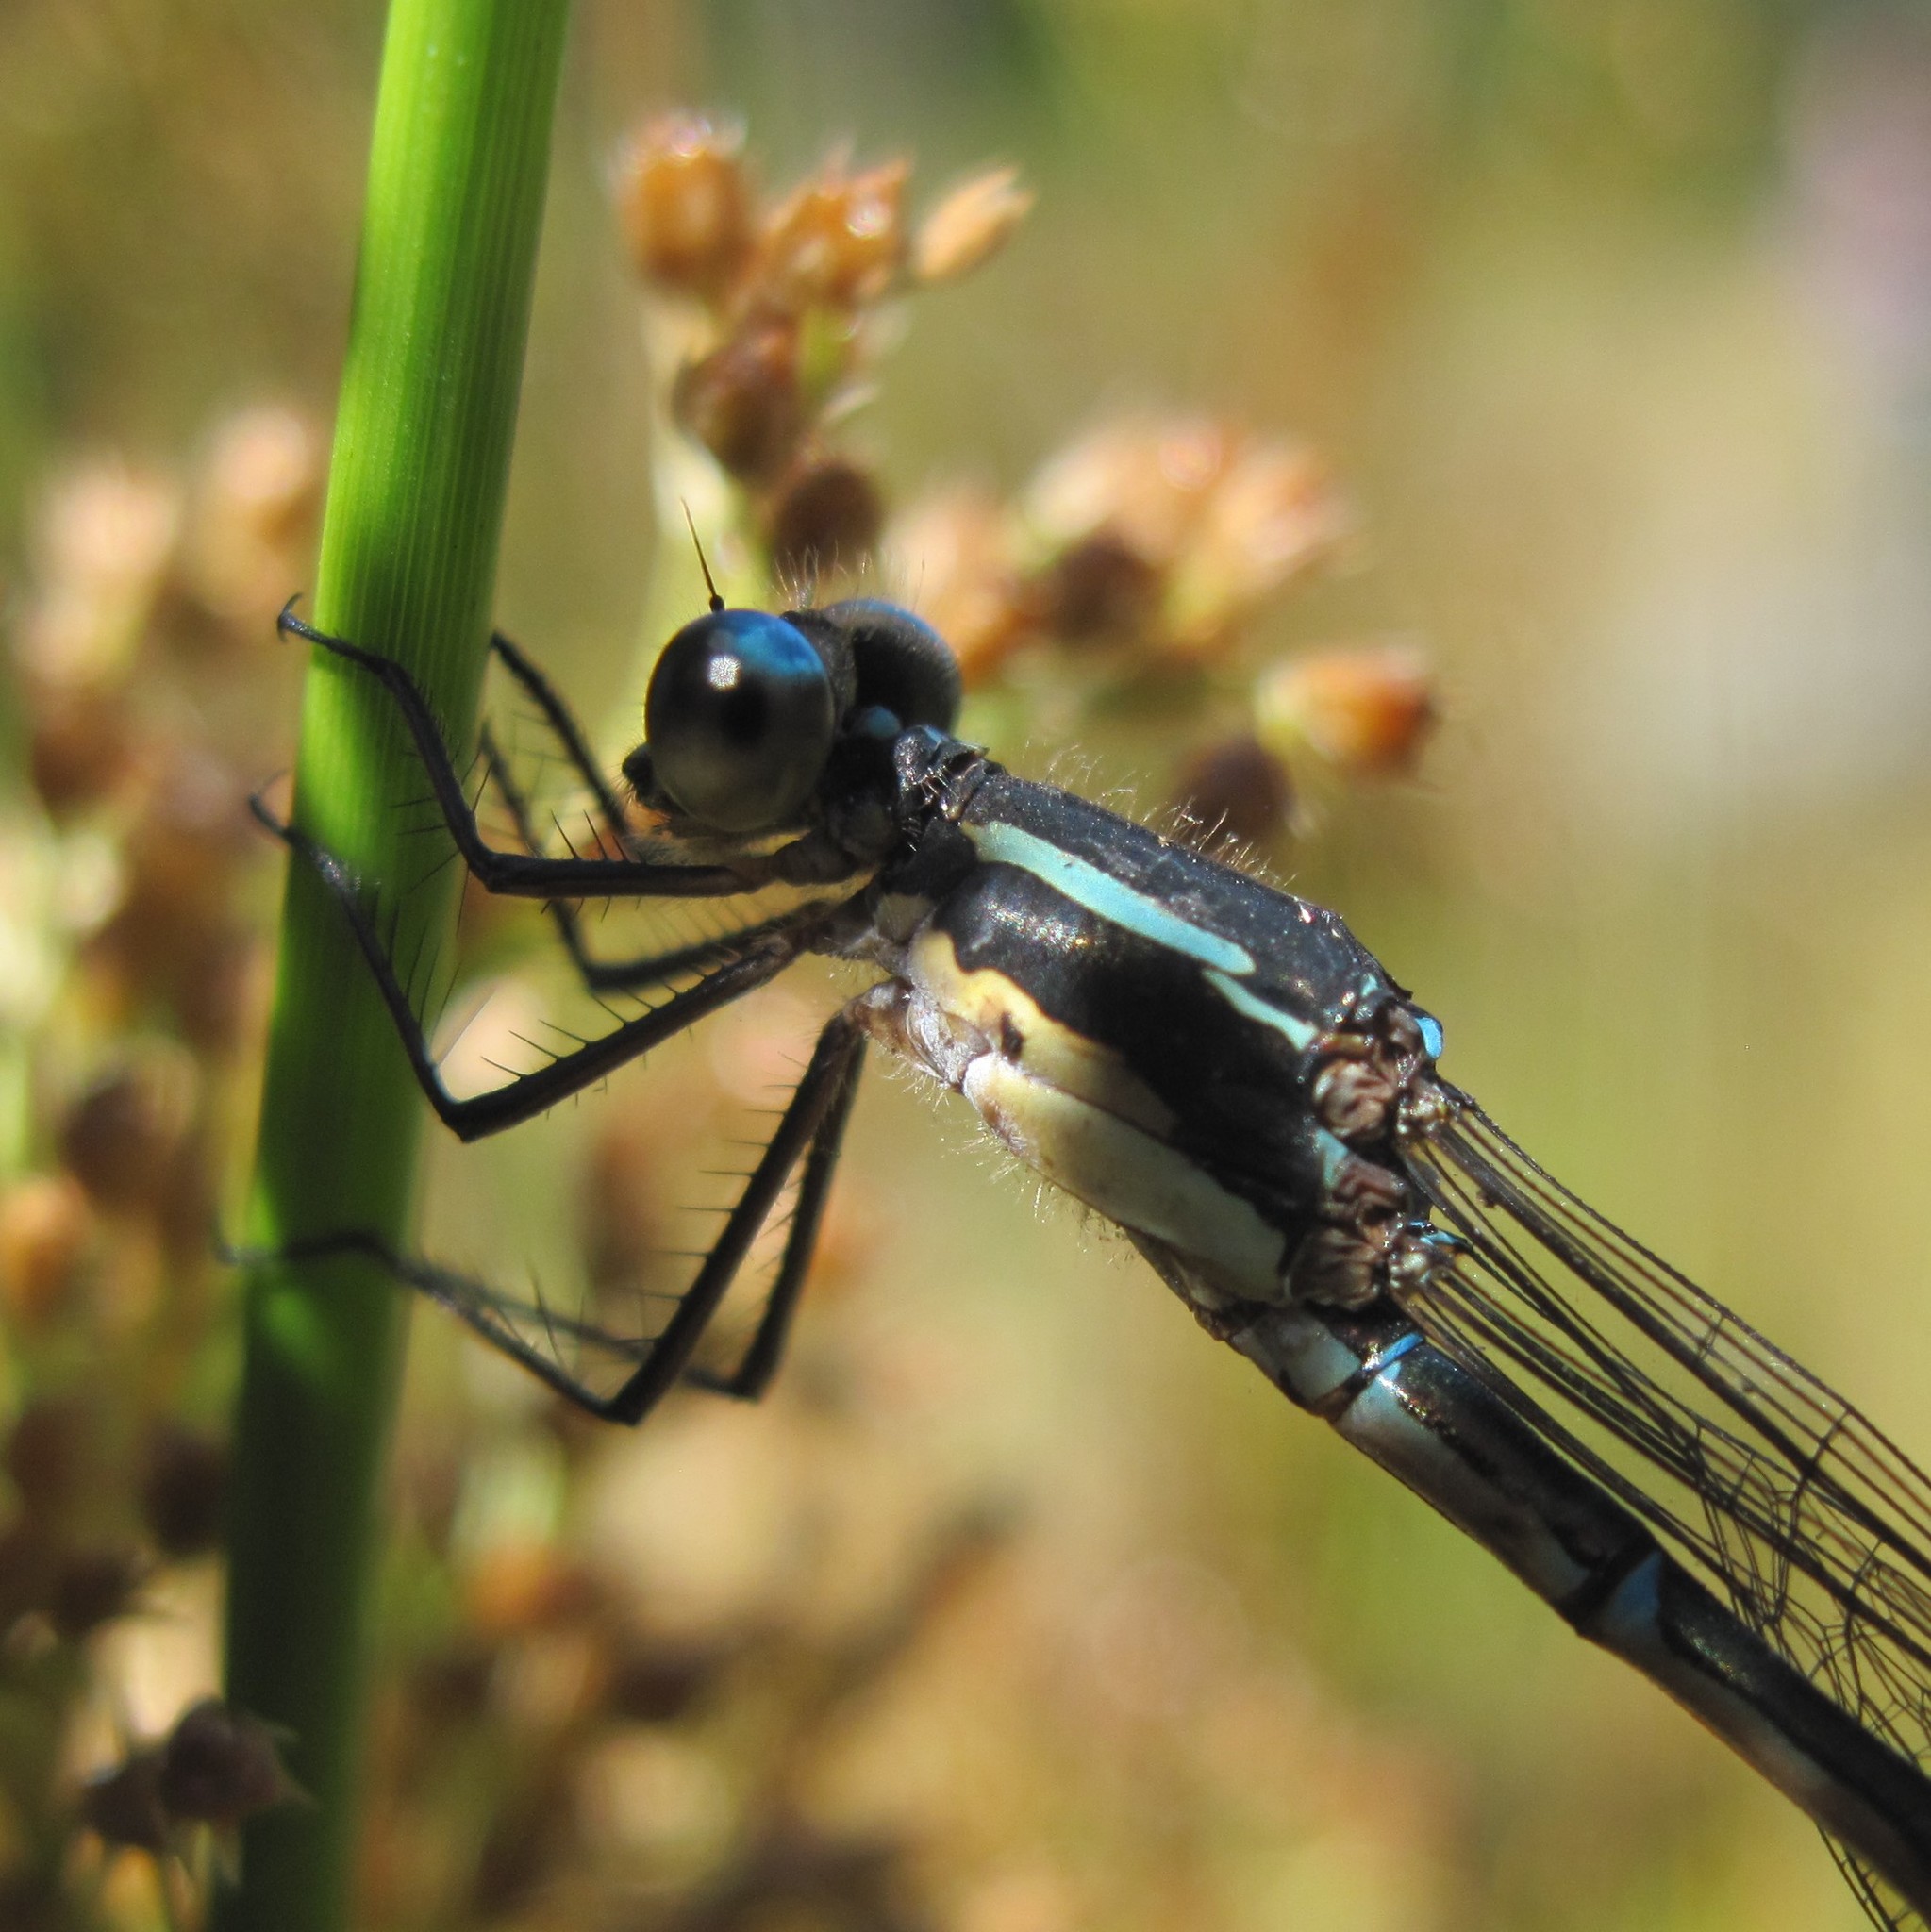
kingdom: Animalia
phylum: Arthropoda
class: Insecta
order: Odonata
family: Lestidae
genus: Austrolestes
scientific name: Austrolestes colensonis
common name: Blue damselfly
